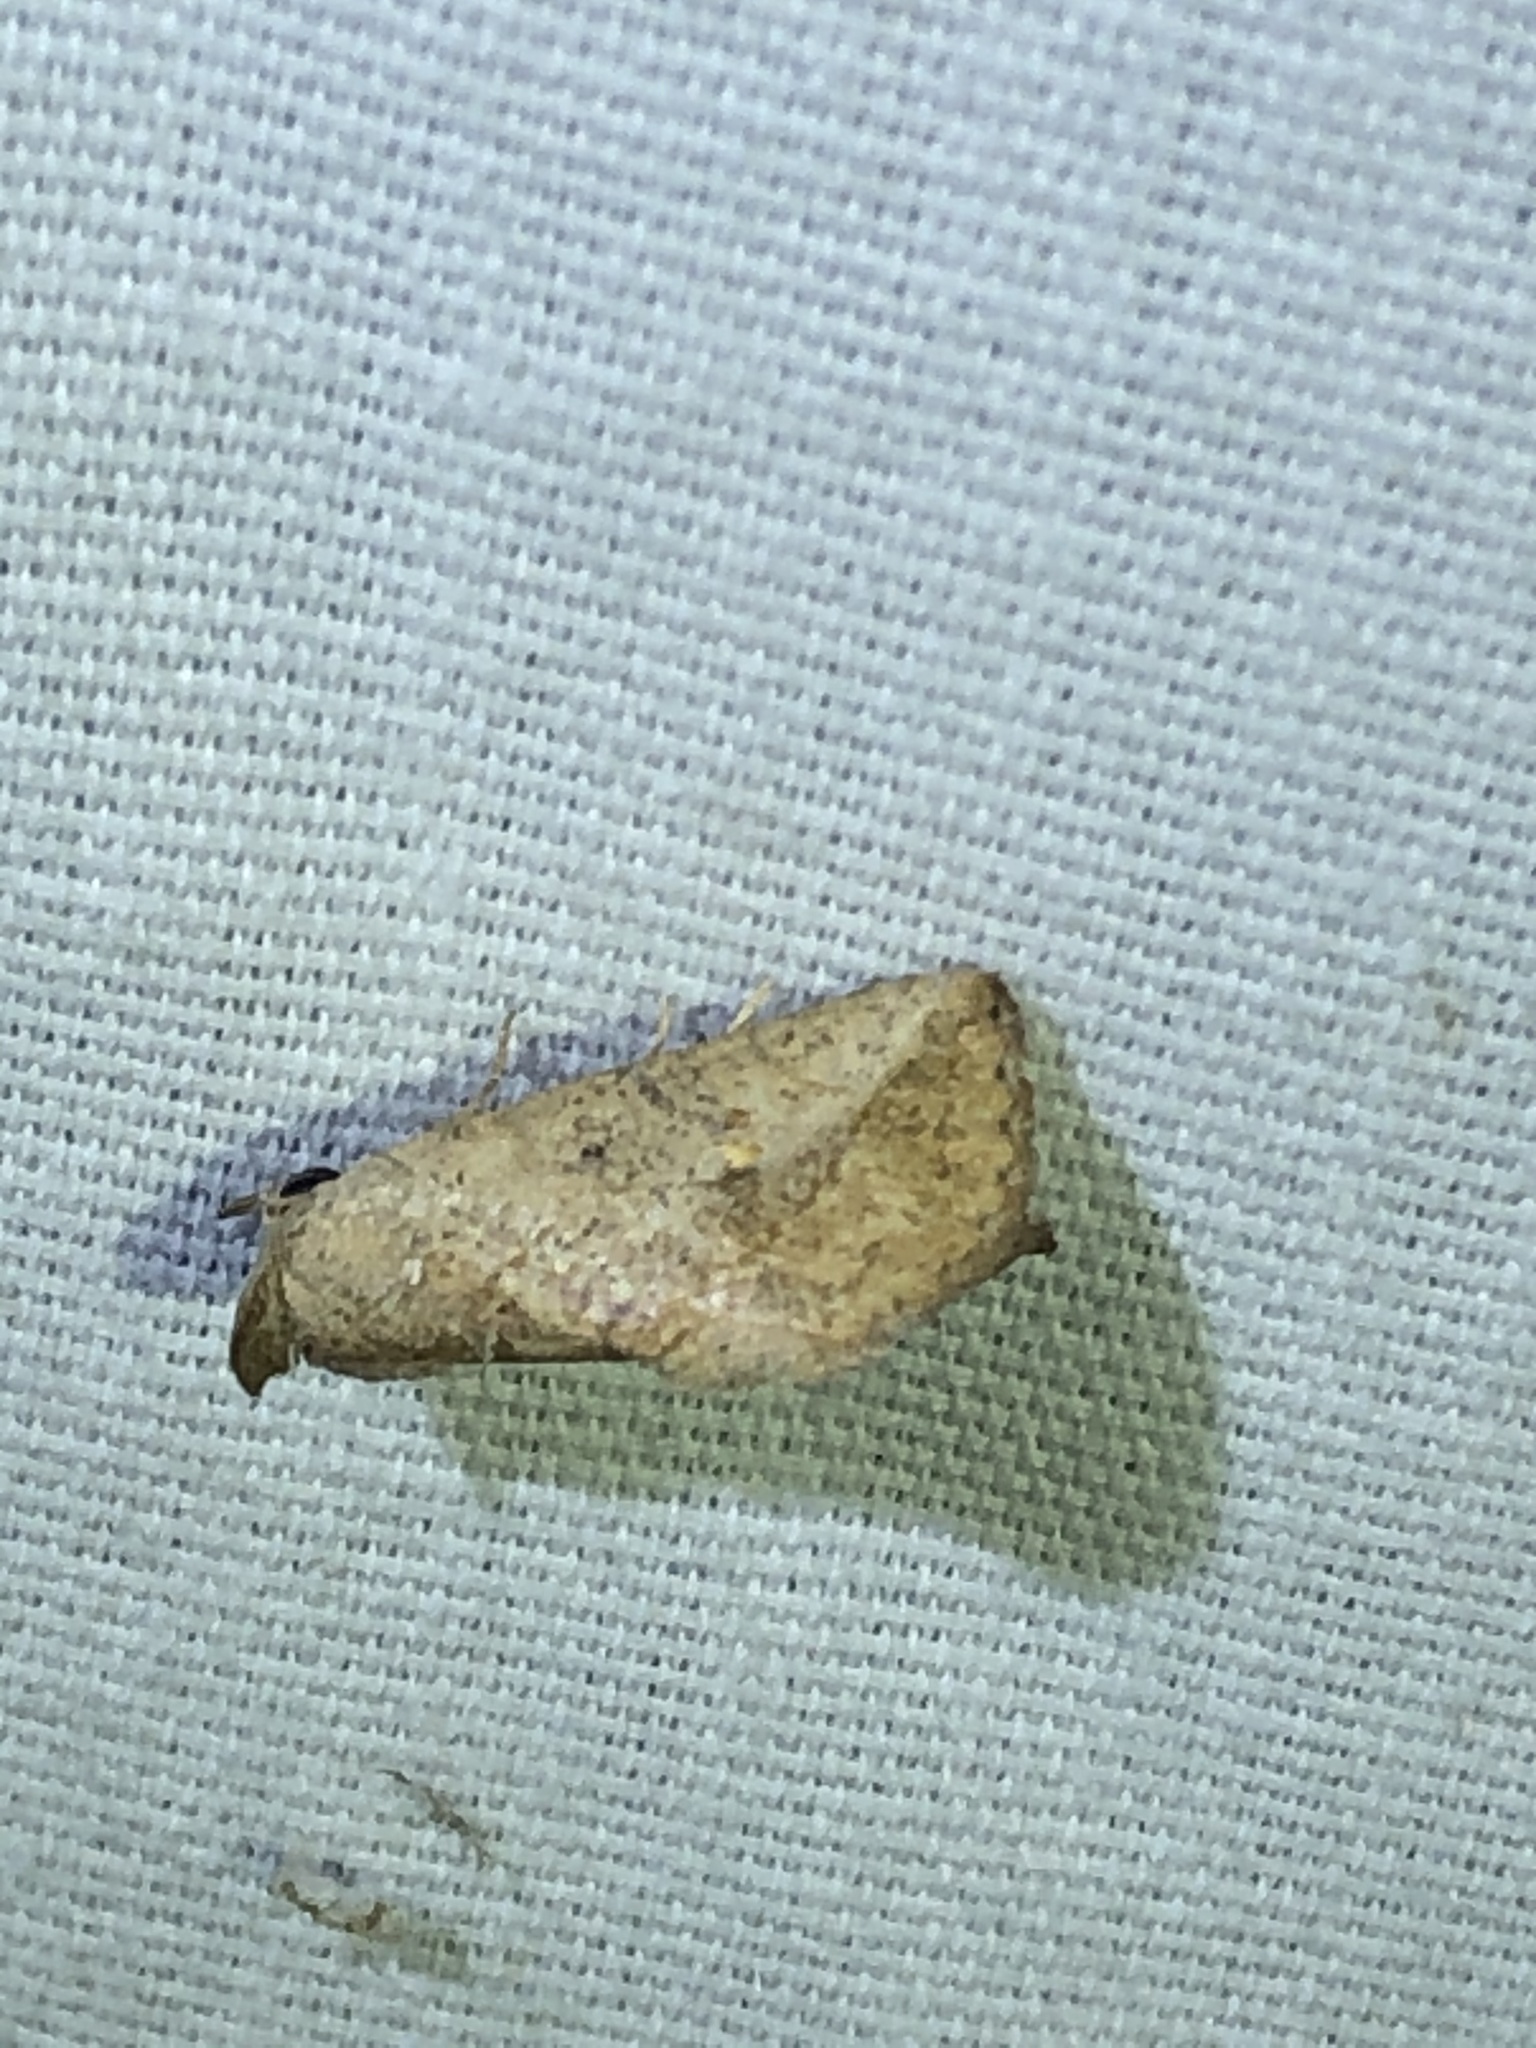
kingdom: Animalia
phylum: Arthropoda
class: Insecta
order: Lepidoptera
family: Erebidae
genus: Isogona
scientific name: Isogona snowi
